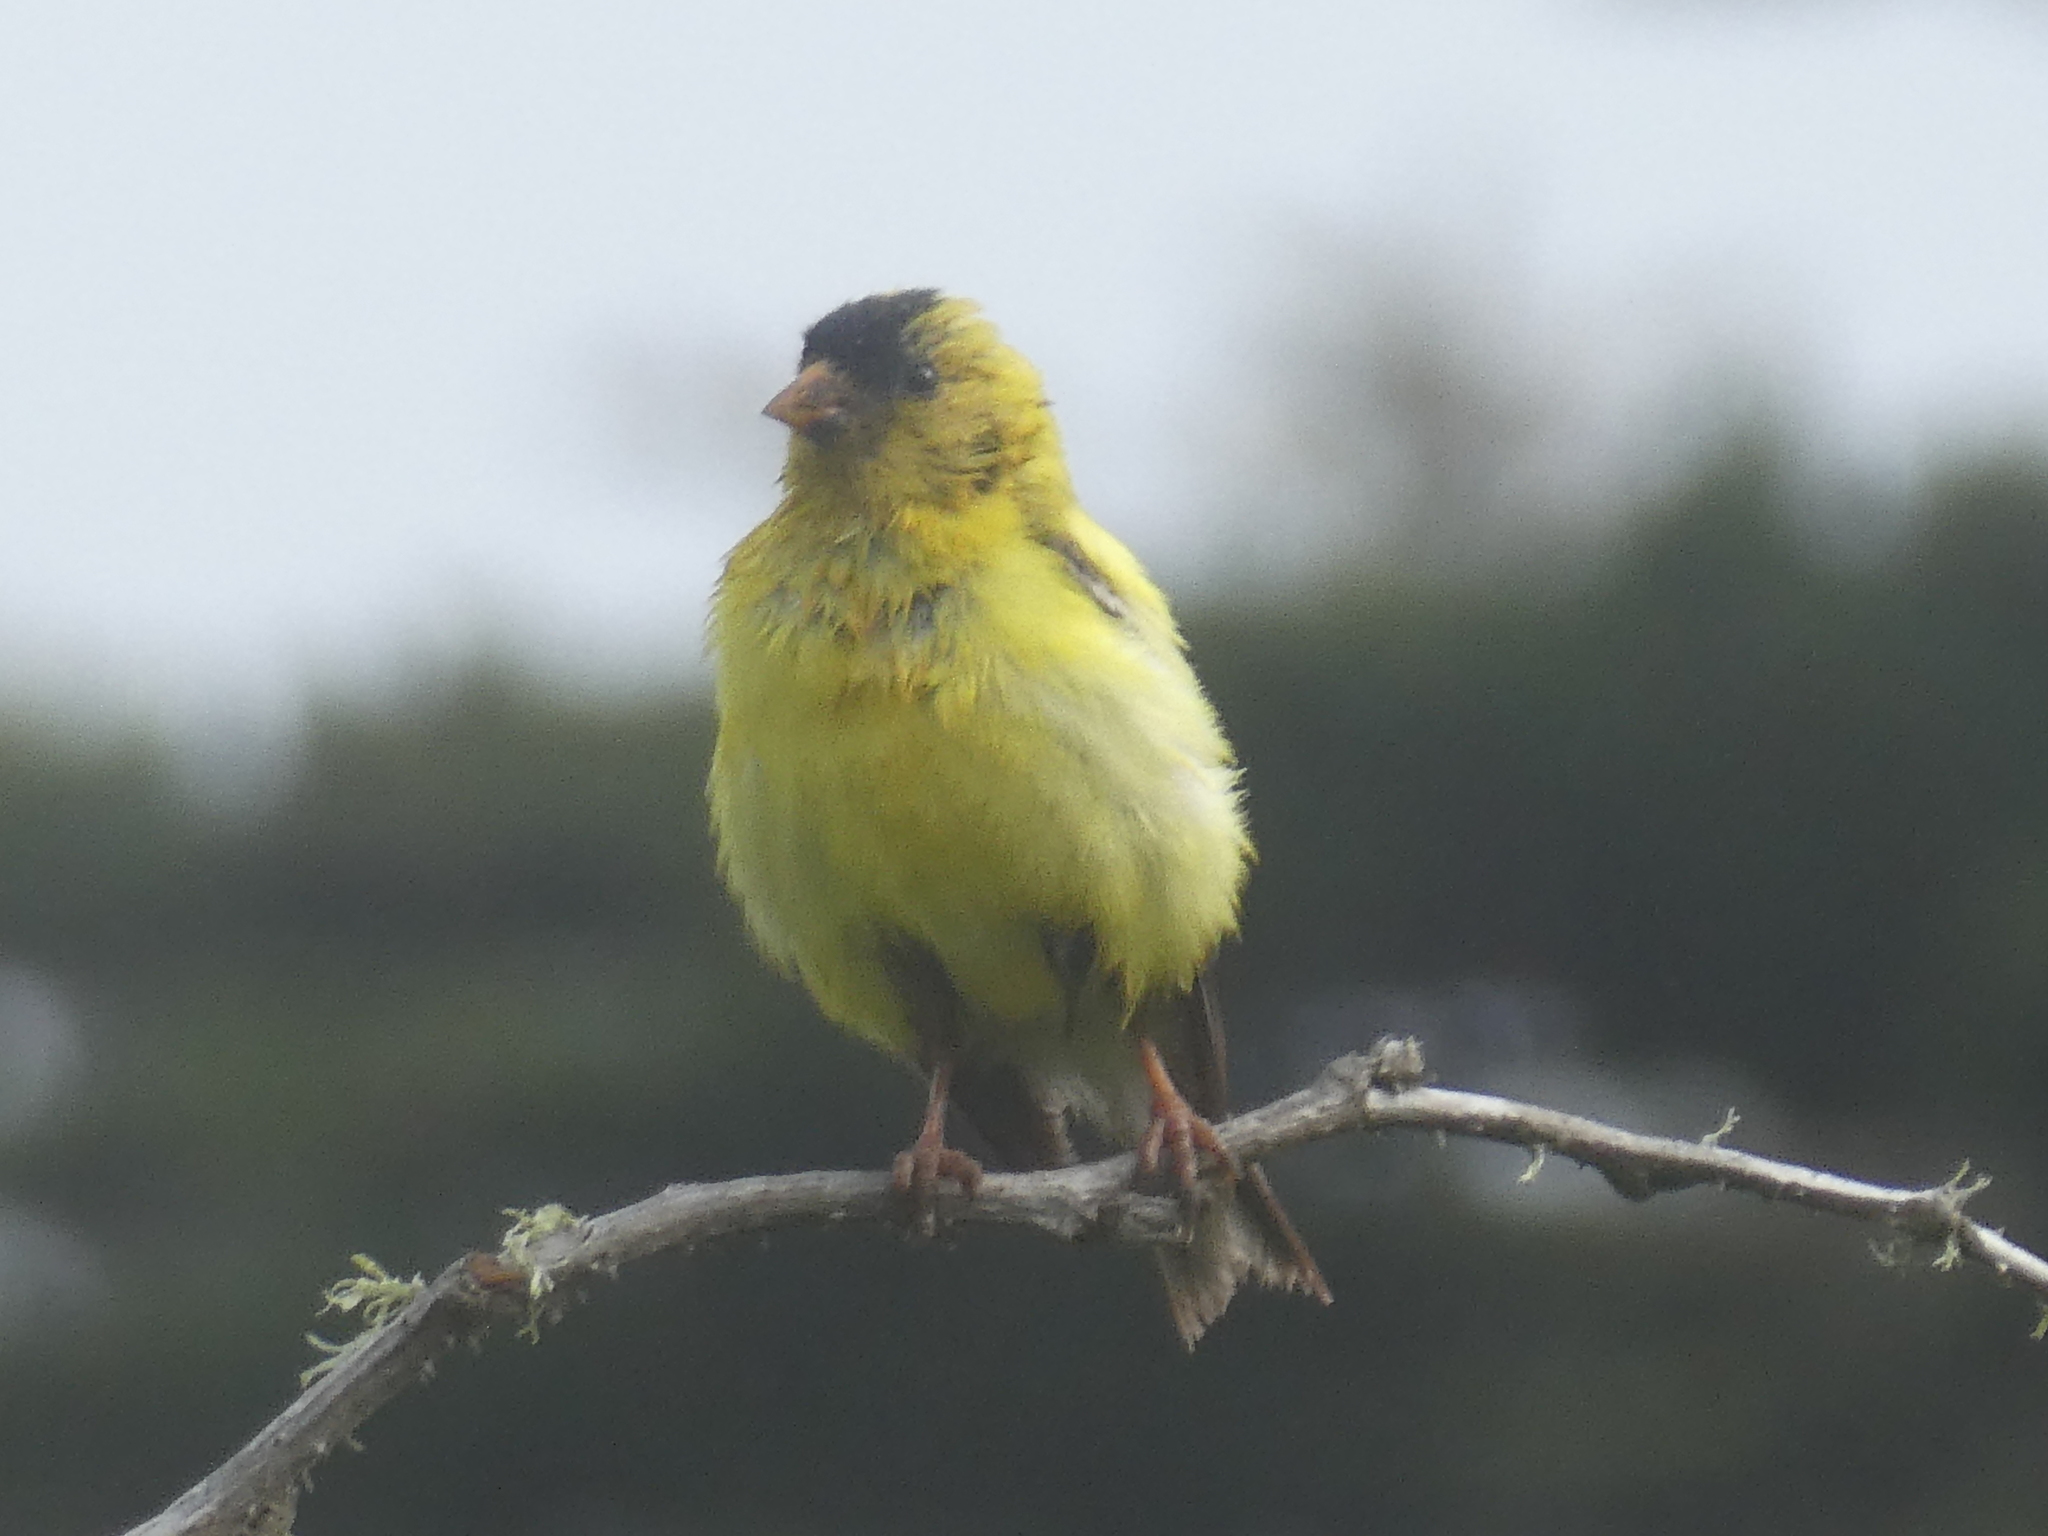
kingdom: Animalia
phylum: Chordata
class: Aves
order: Passeriformes
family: Fringillidae
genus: Spinus
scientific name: Spinus tristis
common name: American goldfinch
